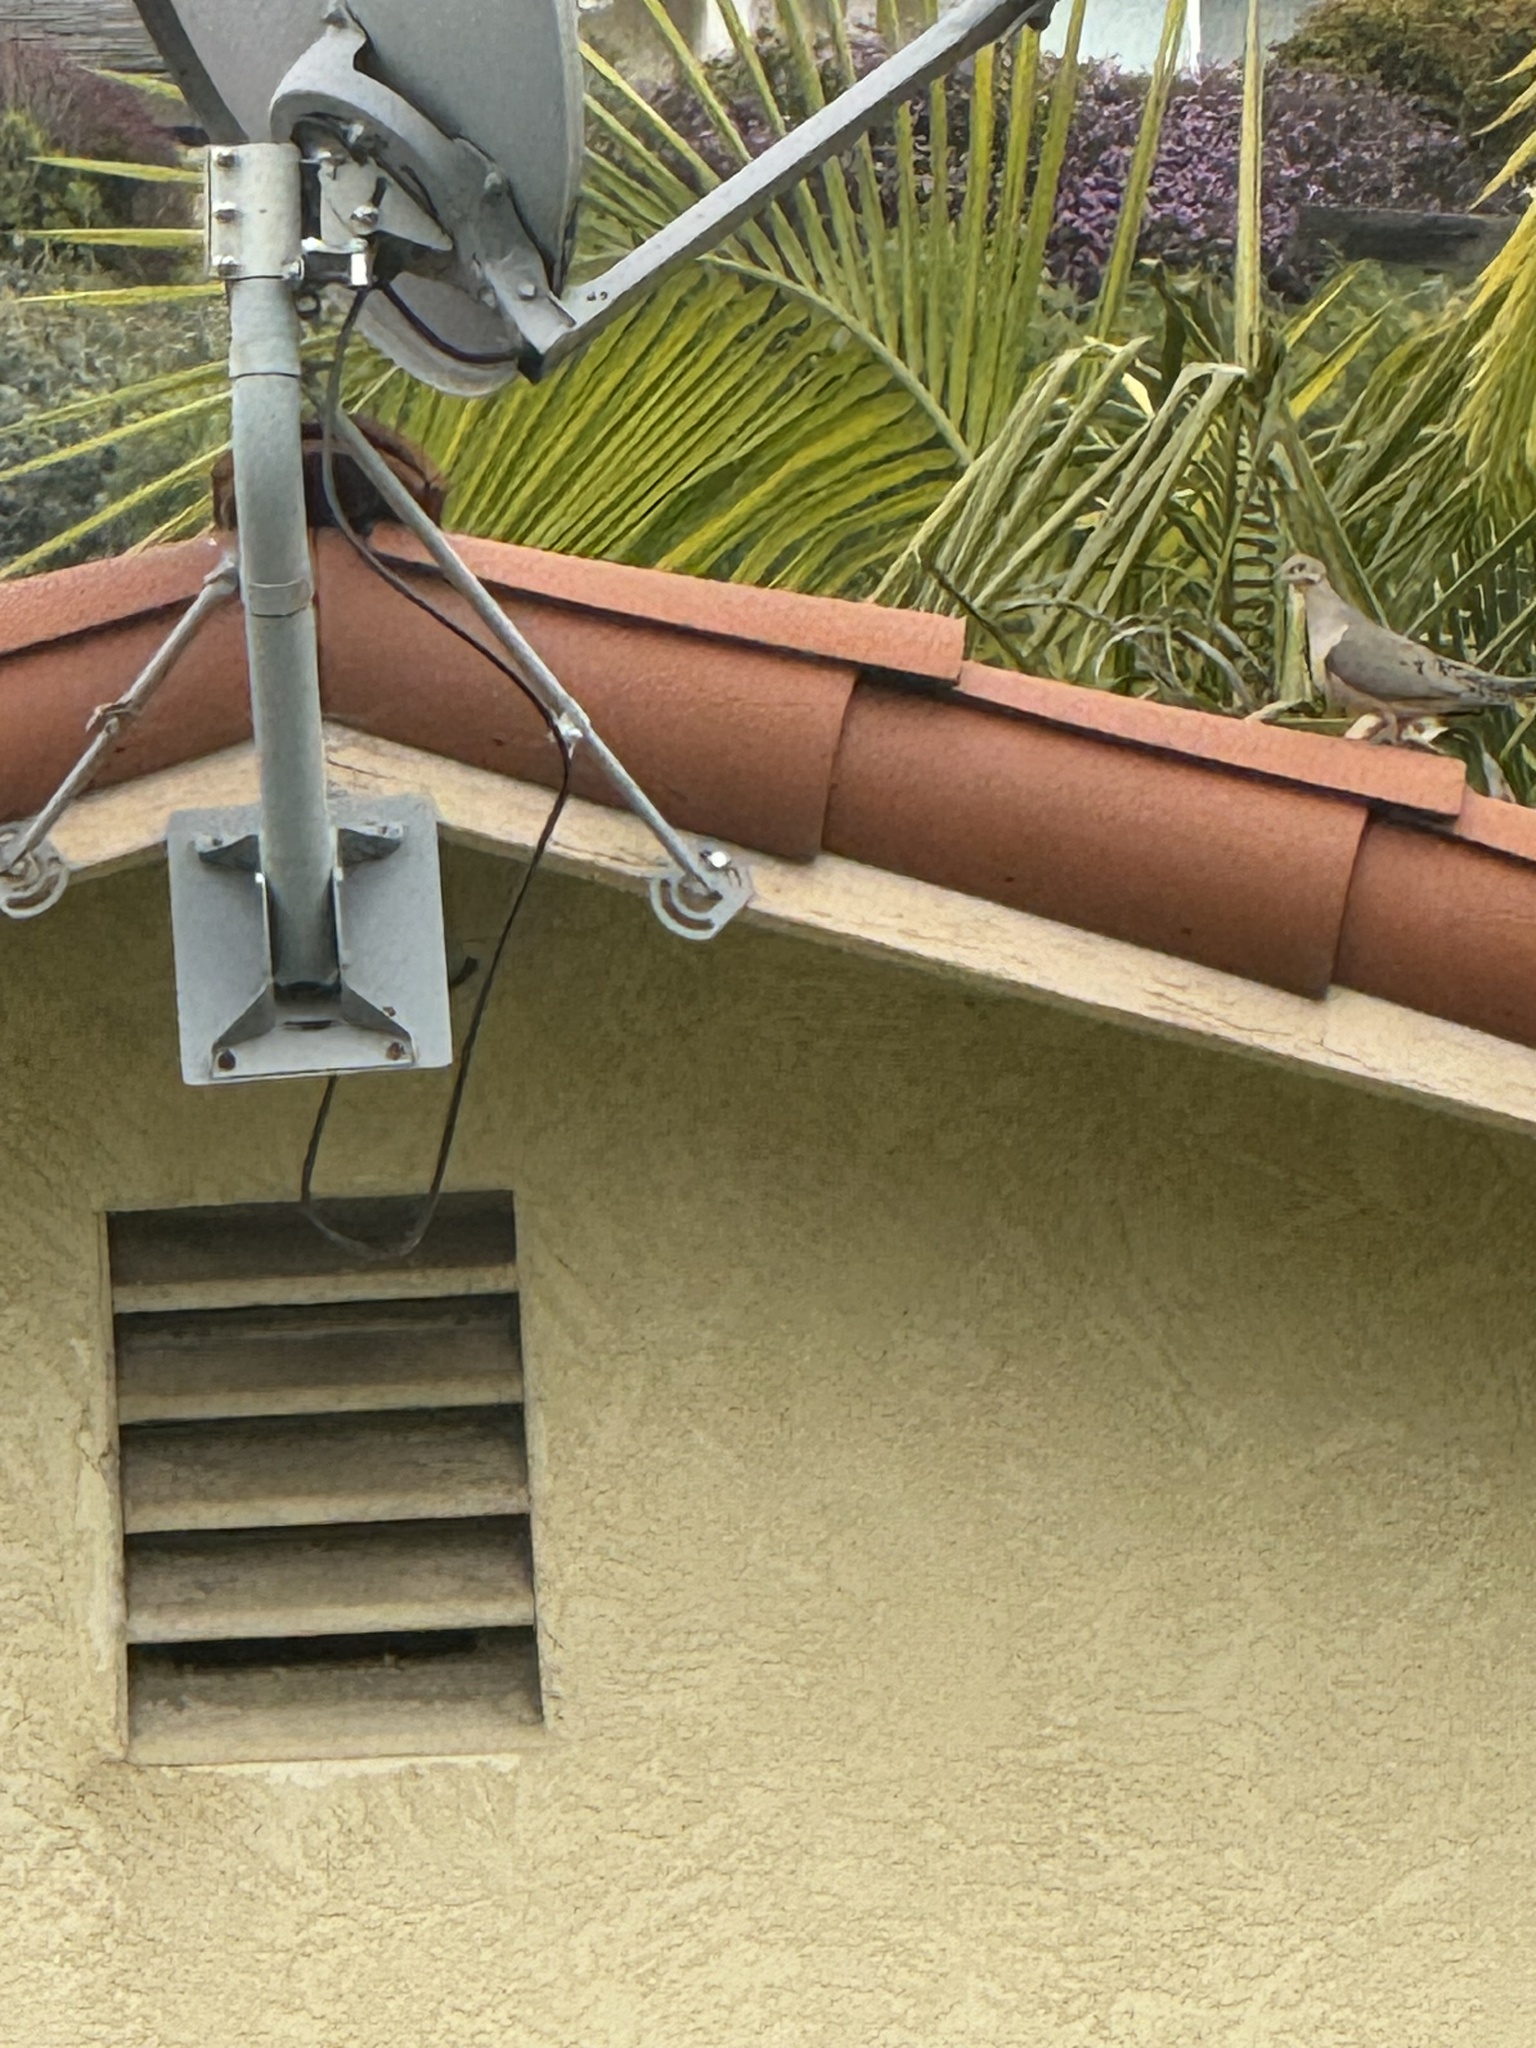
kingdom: Animalia
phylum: Chordata
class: Aves
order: Columbiformes
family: Columbidae
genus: Zenaida
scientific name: Zenaida macroura
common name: Mourning dove
